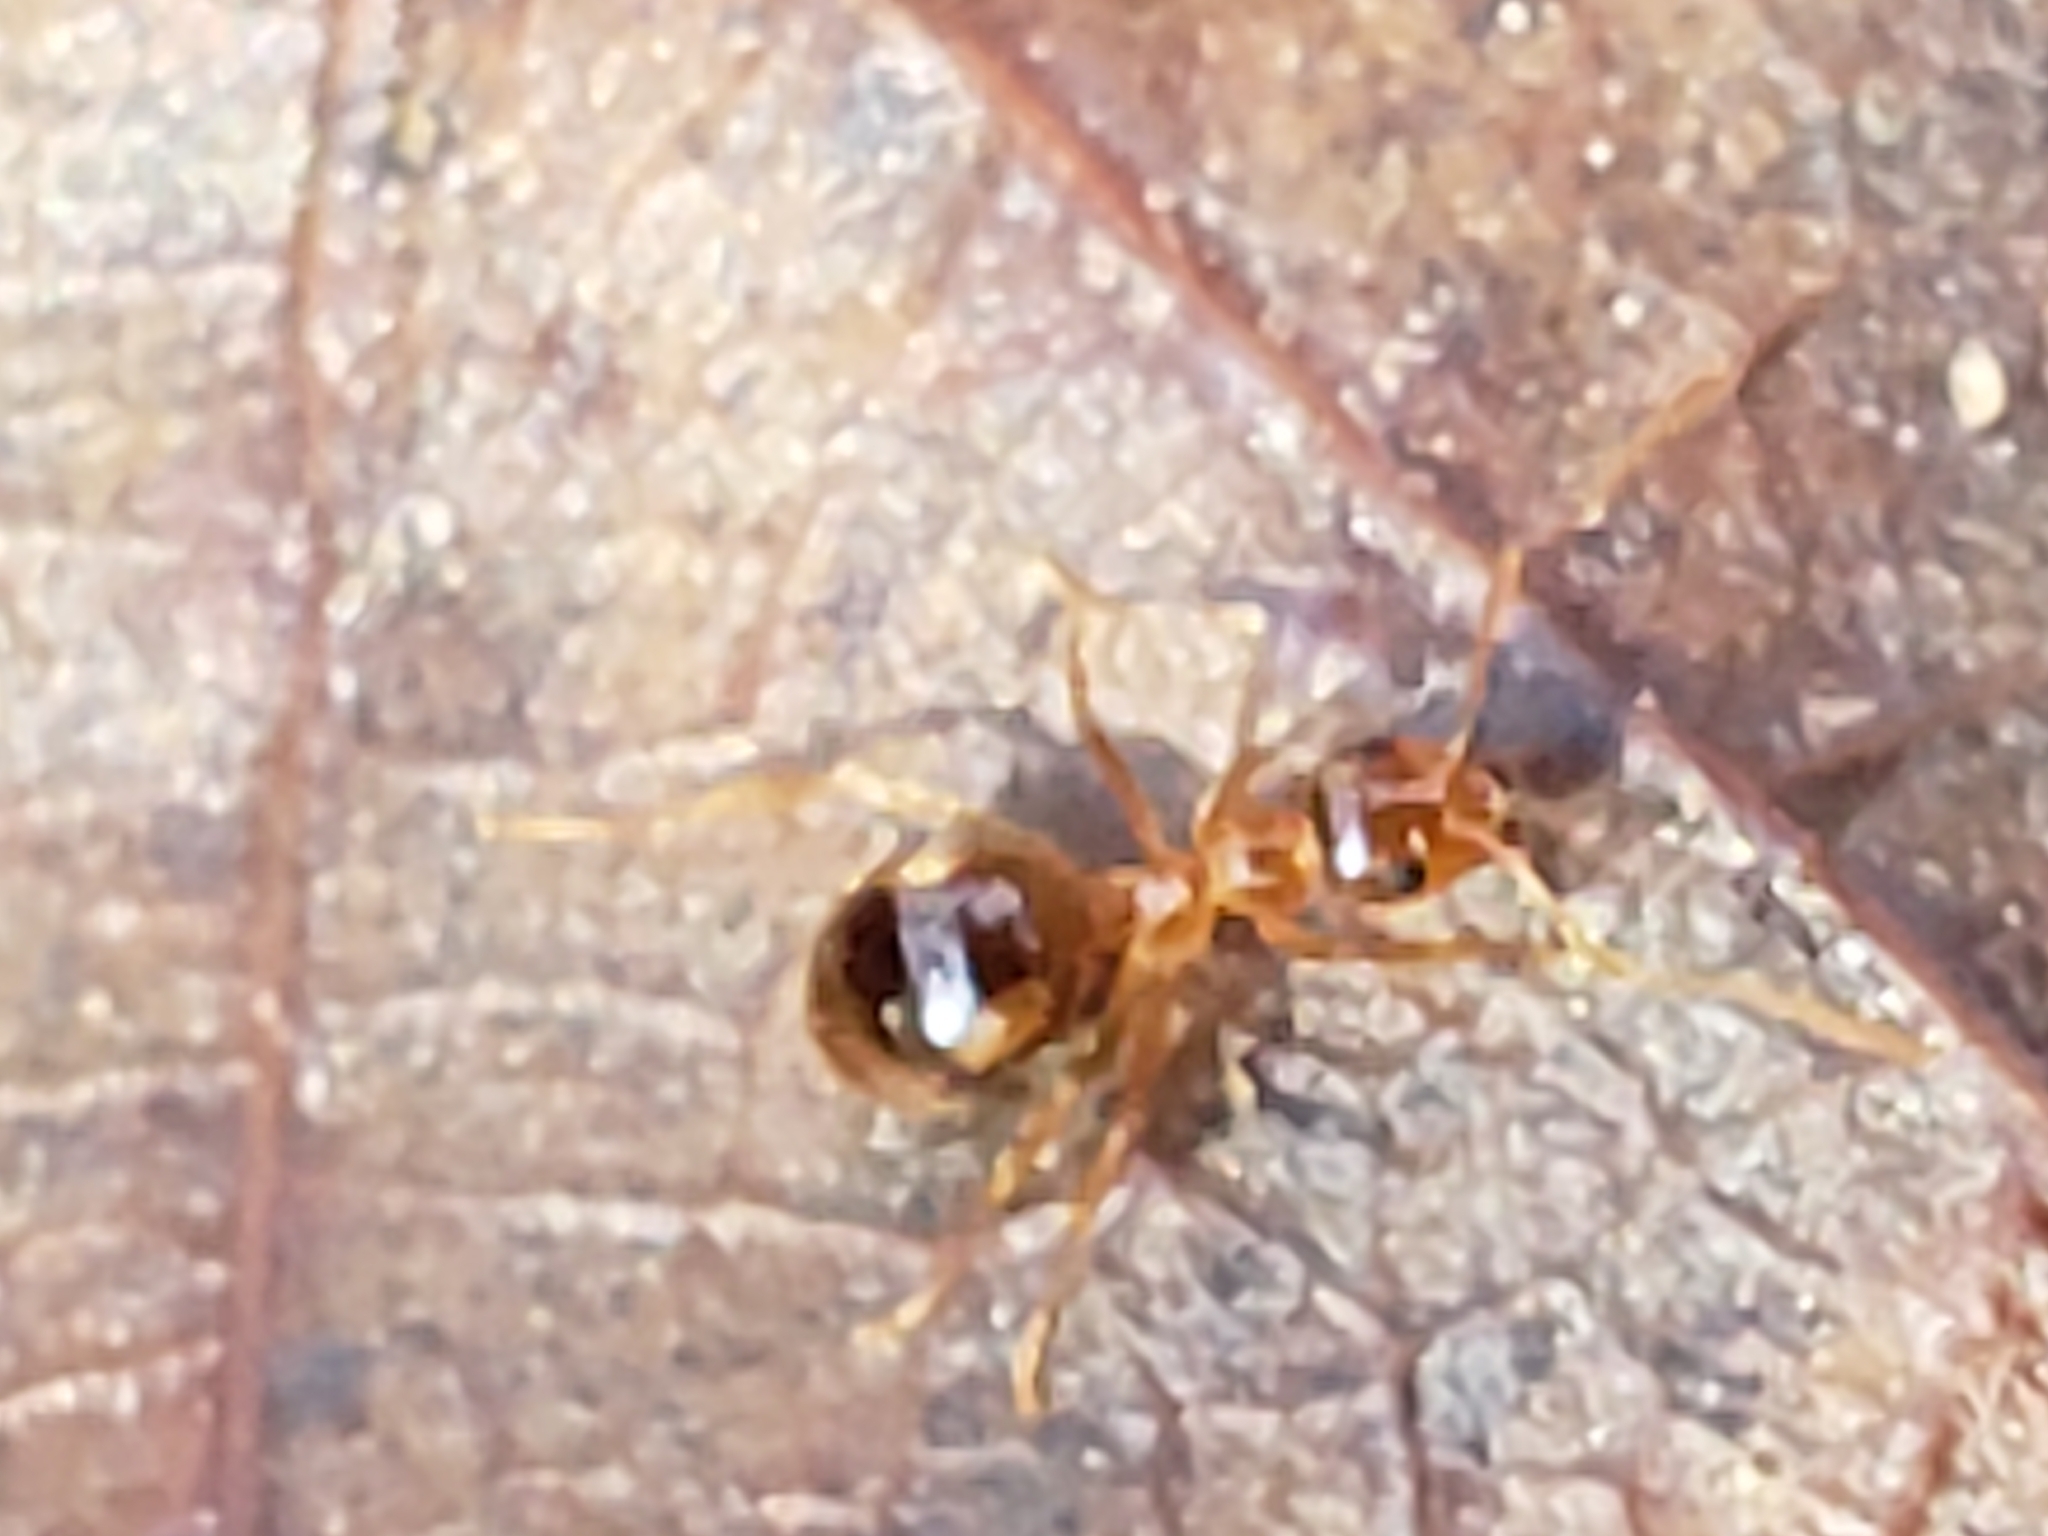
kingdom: Animalia
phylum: Arthropoda
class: Insecta
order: Hymenoptera
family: Formicidae
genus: Prenolepis
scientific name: Prenolepis imparis
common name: Small honey ant
